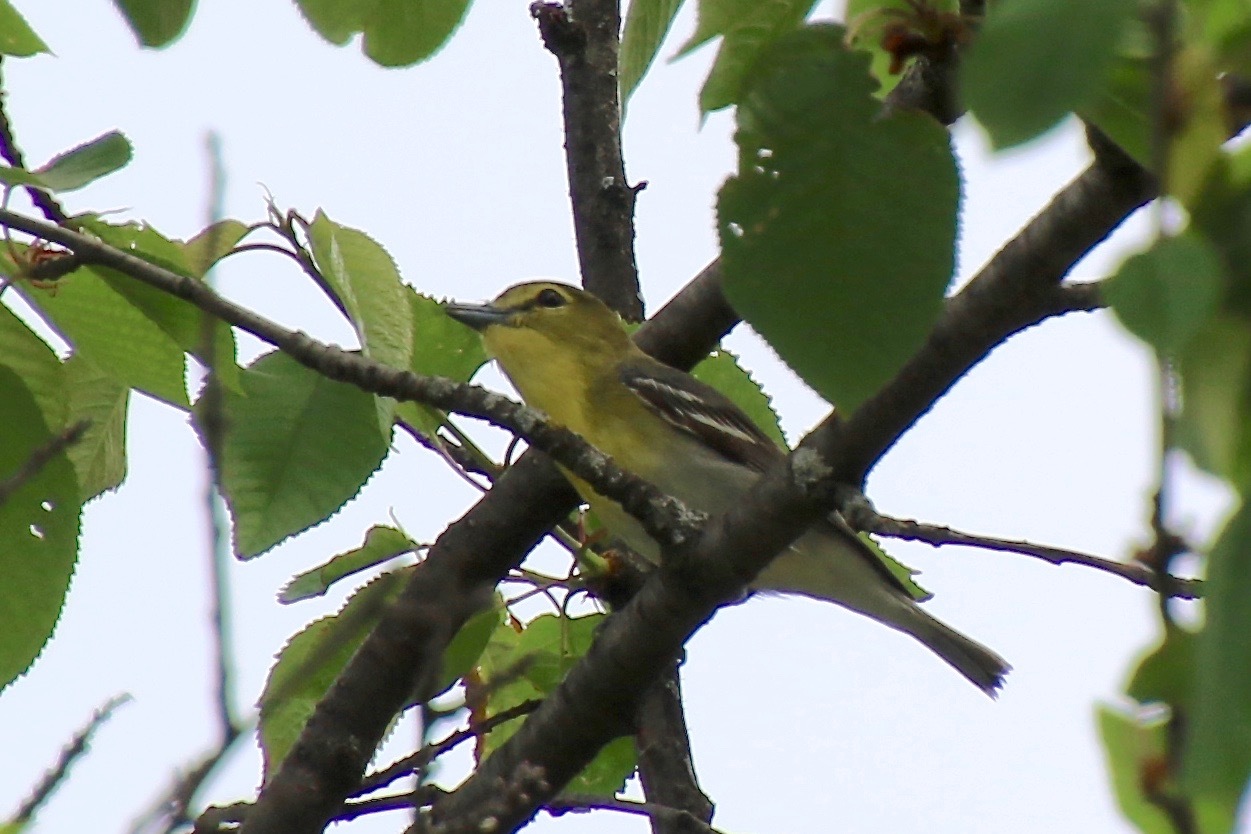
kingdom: Animalia
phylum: Chordata
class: Aves
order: Passeriformes
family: Vireonidae
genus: Vireo
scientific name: Vireo flavifrons
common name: Yellow-throated vireo
